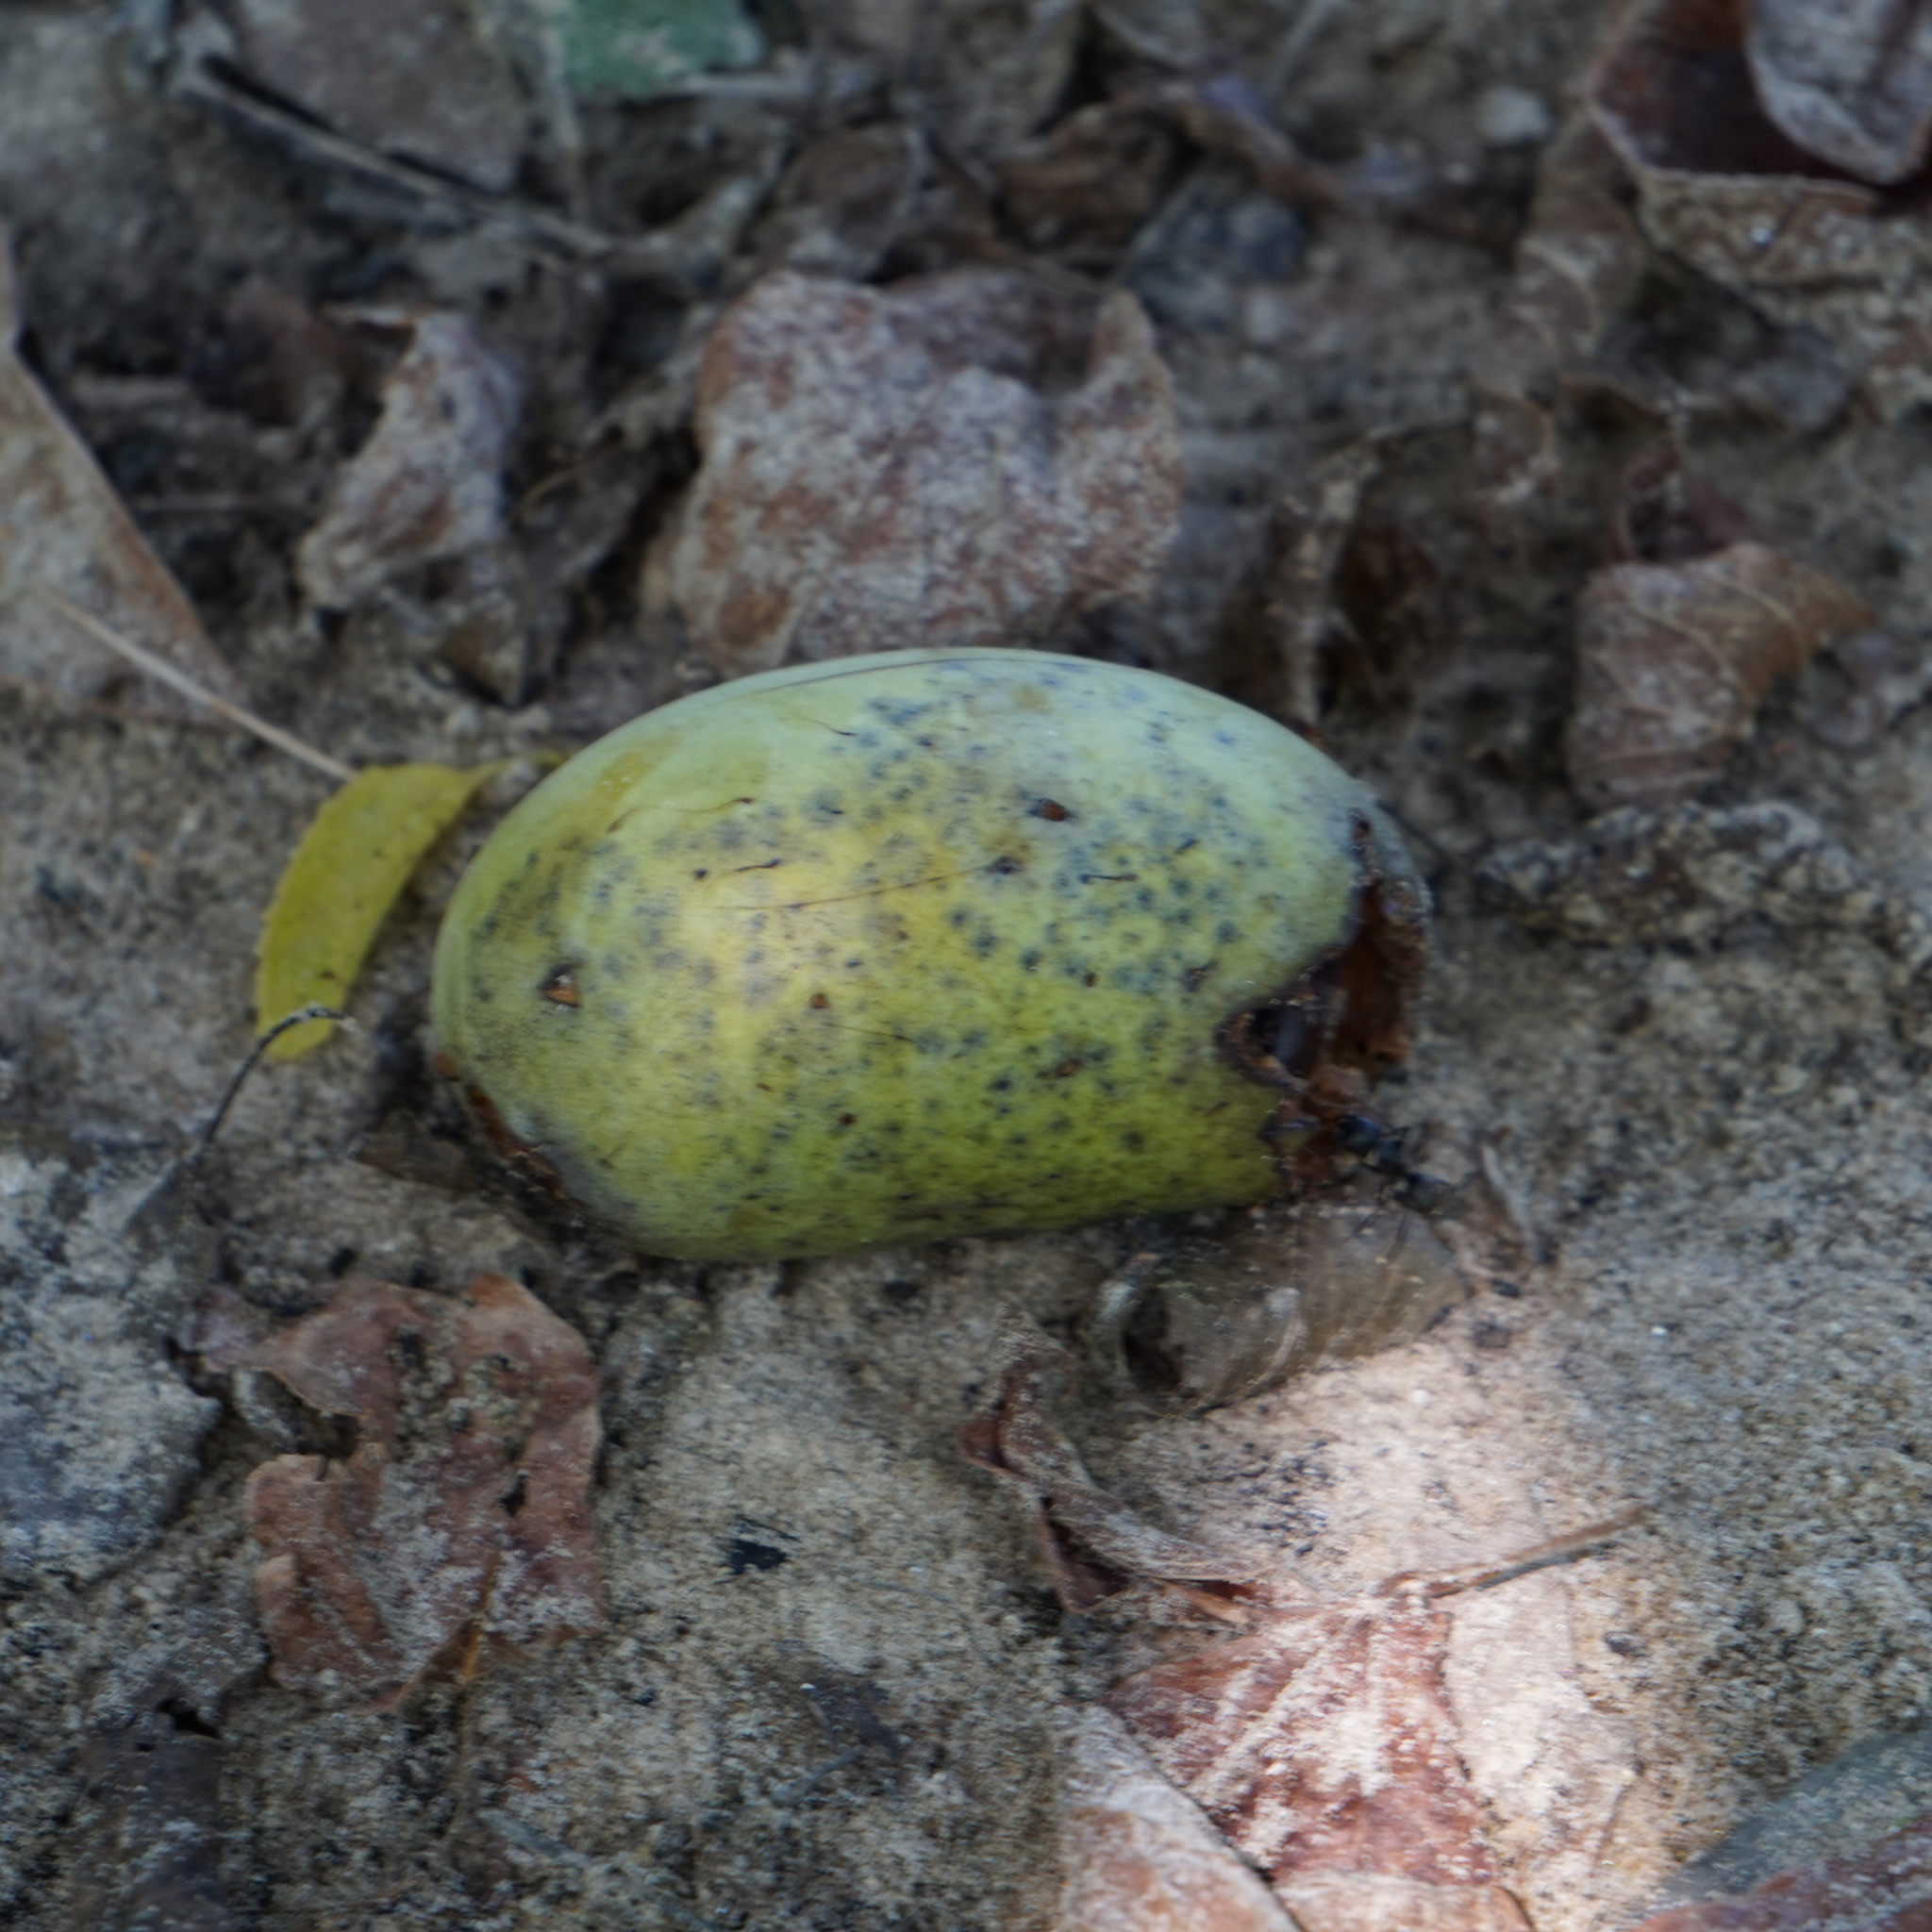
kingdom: Plantae
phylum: Tracheophyta
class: Magnoliopsida
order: Magnoliales
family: Annonaceae
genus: Asimina
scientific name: Asimina triloba
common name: Dog-banana
